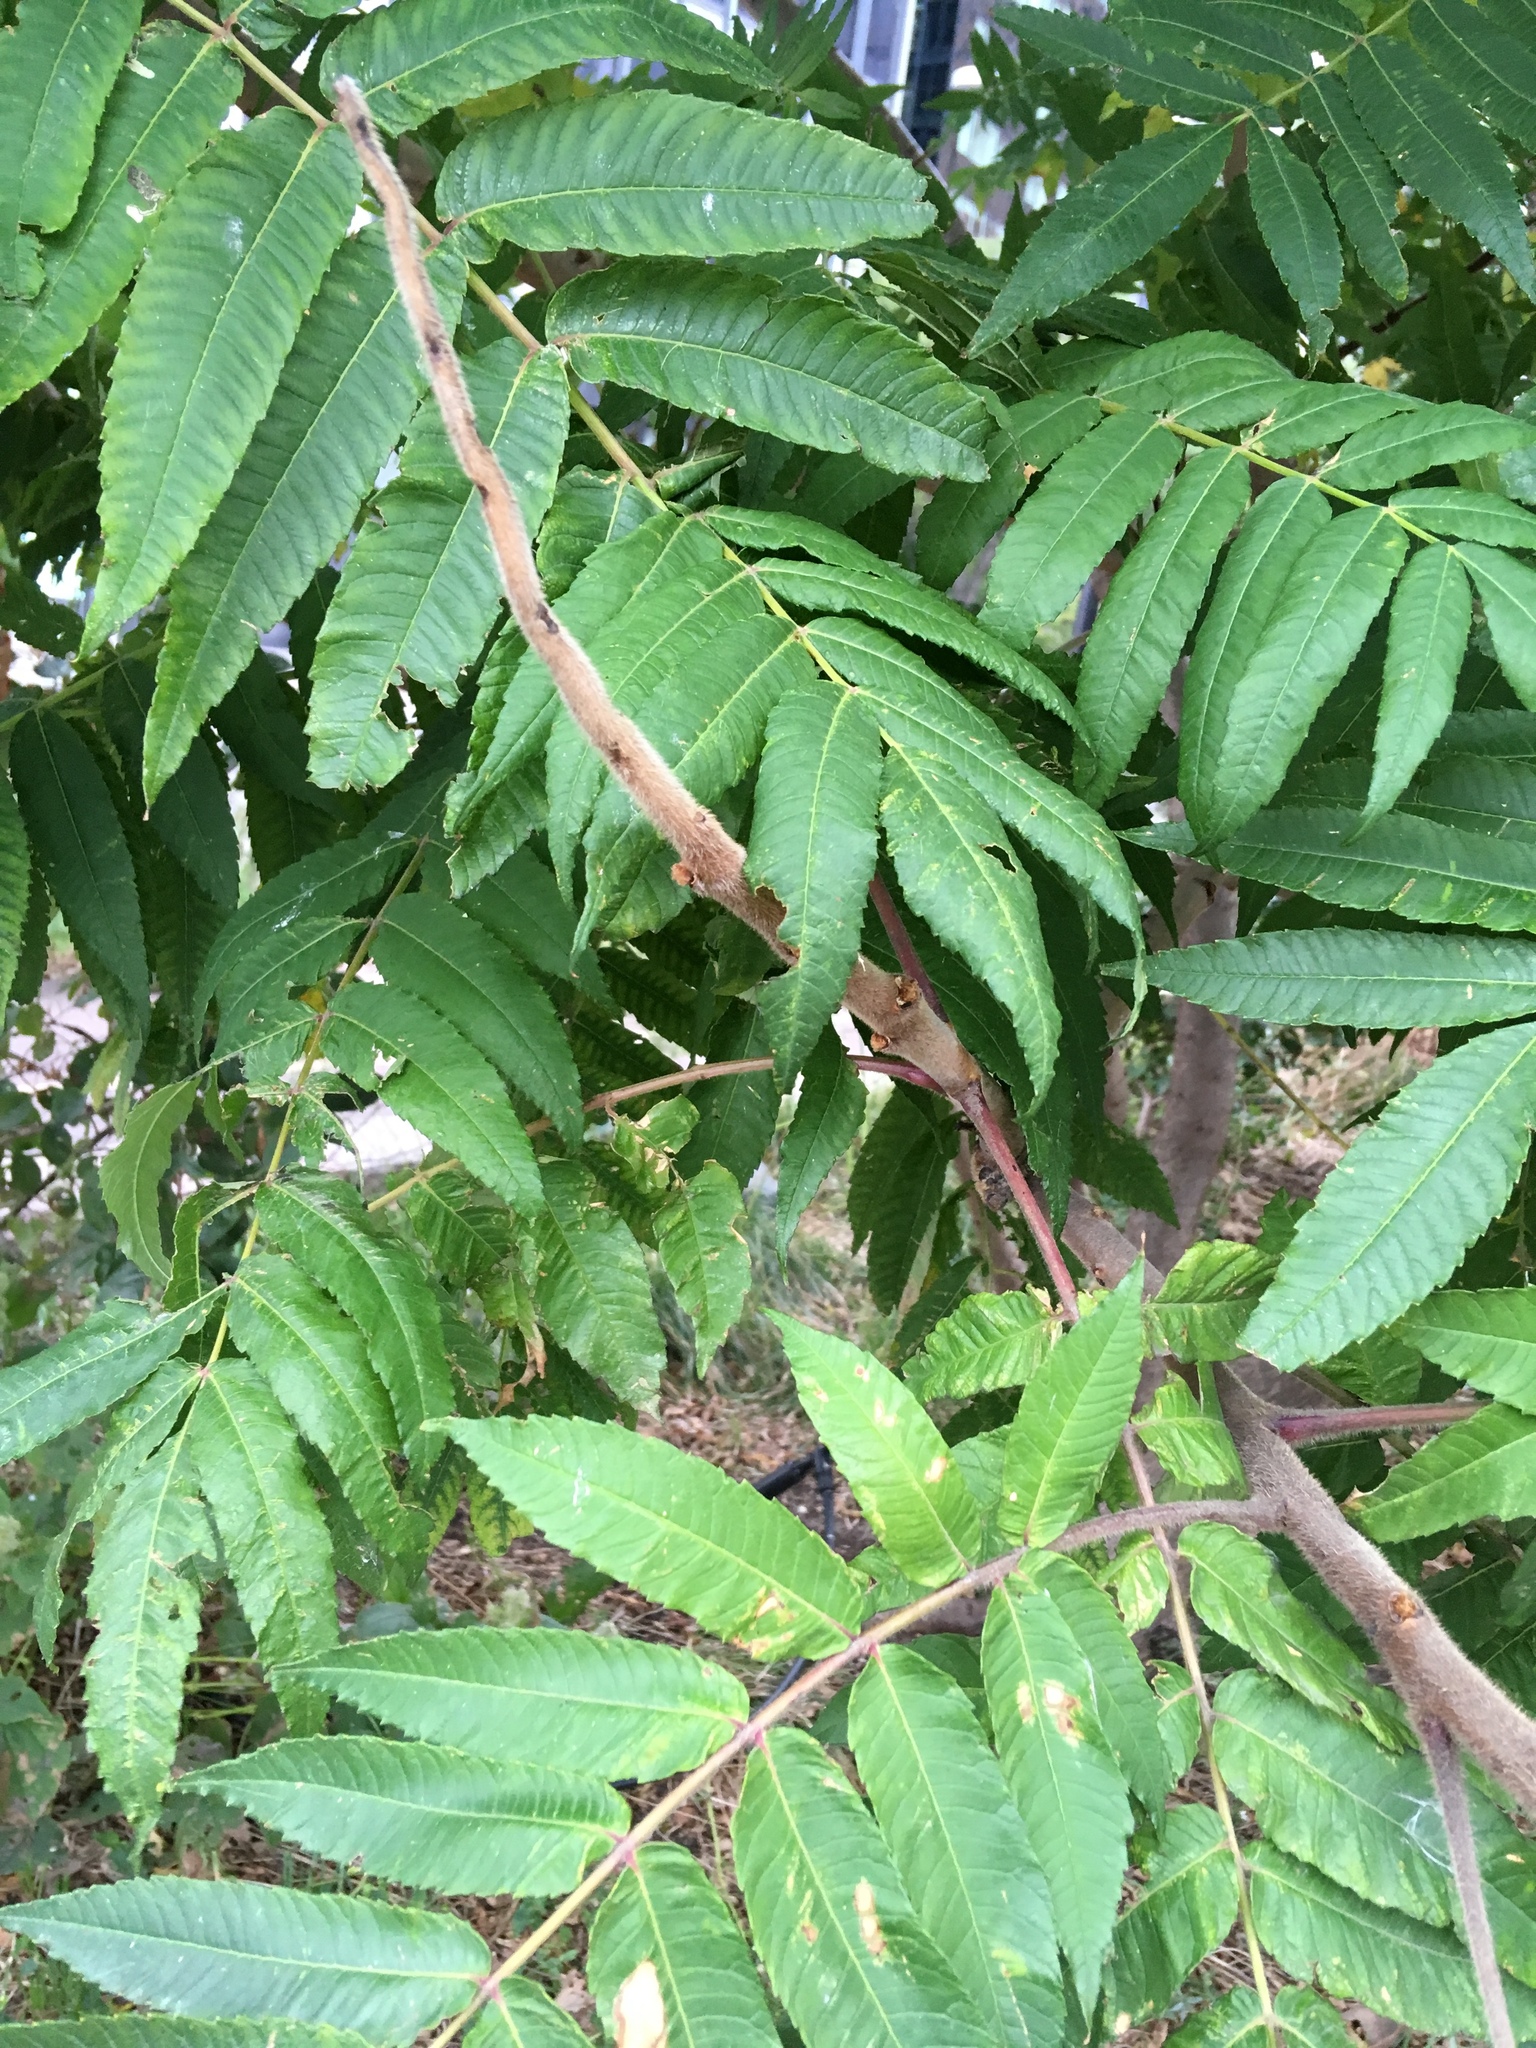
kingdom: Plantae
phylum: Tracheophyta
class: Magnoliopsida
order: Sapindales
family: Anacardiaceae
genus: Rhus
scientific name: Rhus typhina
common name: Staghorn sumac
